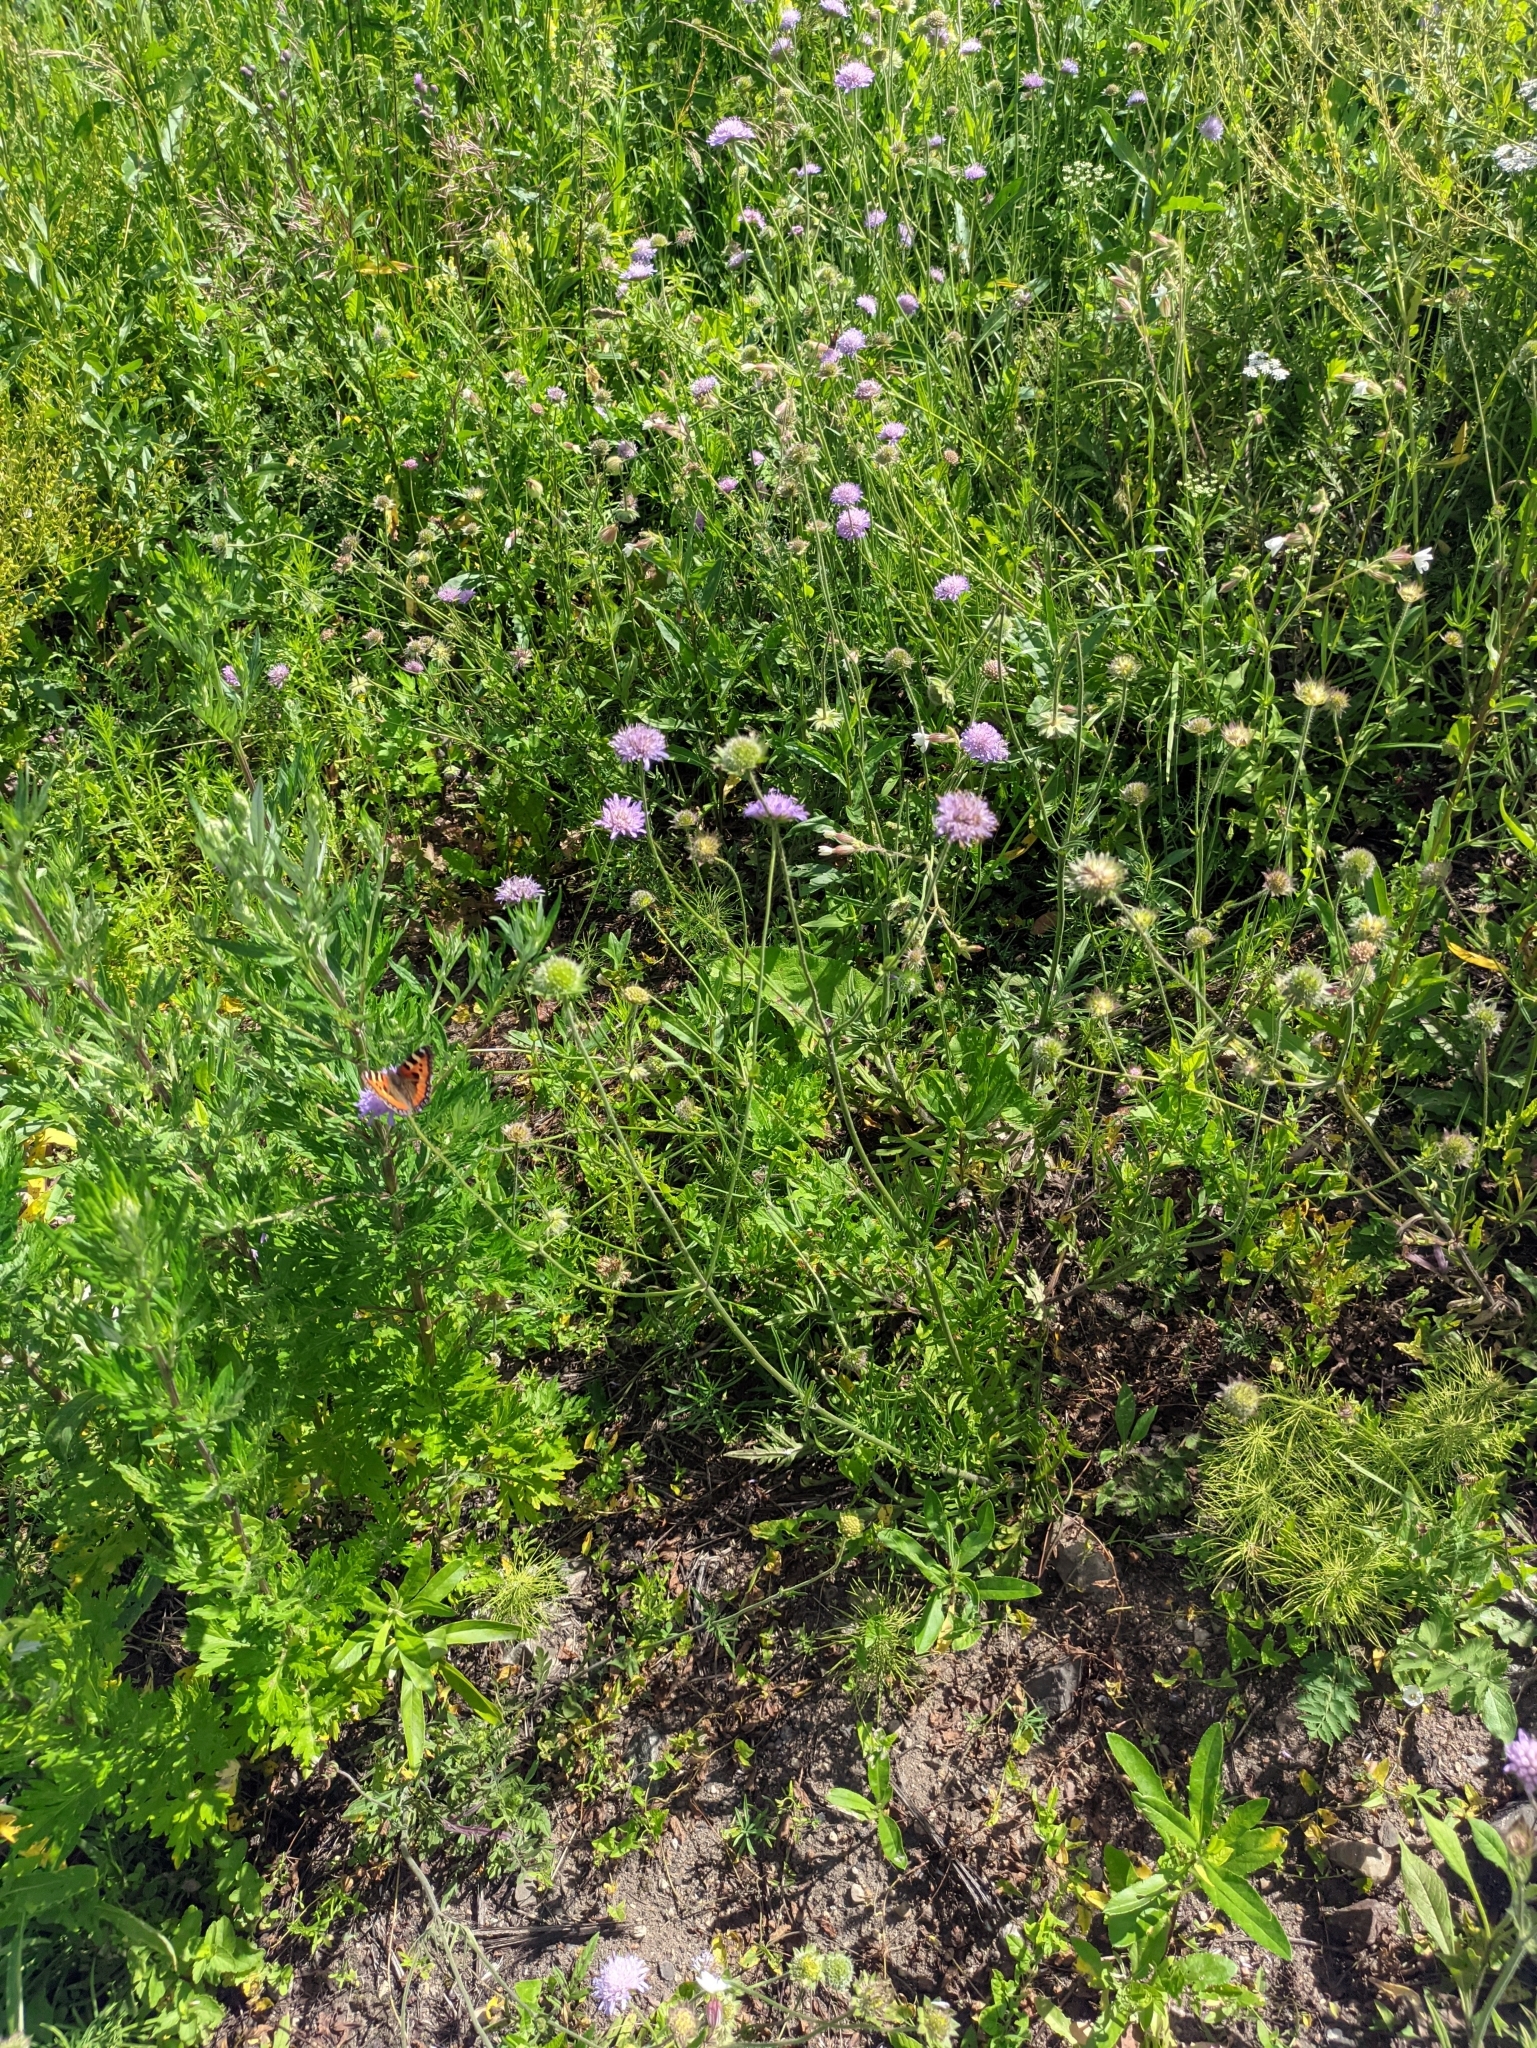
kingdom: Plantae
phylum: Tracheophyta
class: Magnoliopsida
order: Dipsacales
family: Caprifoliaceae
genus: Knautia
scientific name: Knautia arvensis
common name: Field scabiosa
